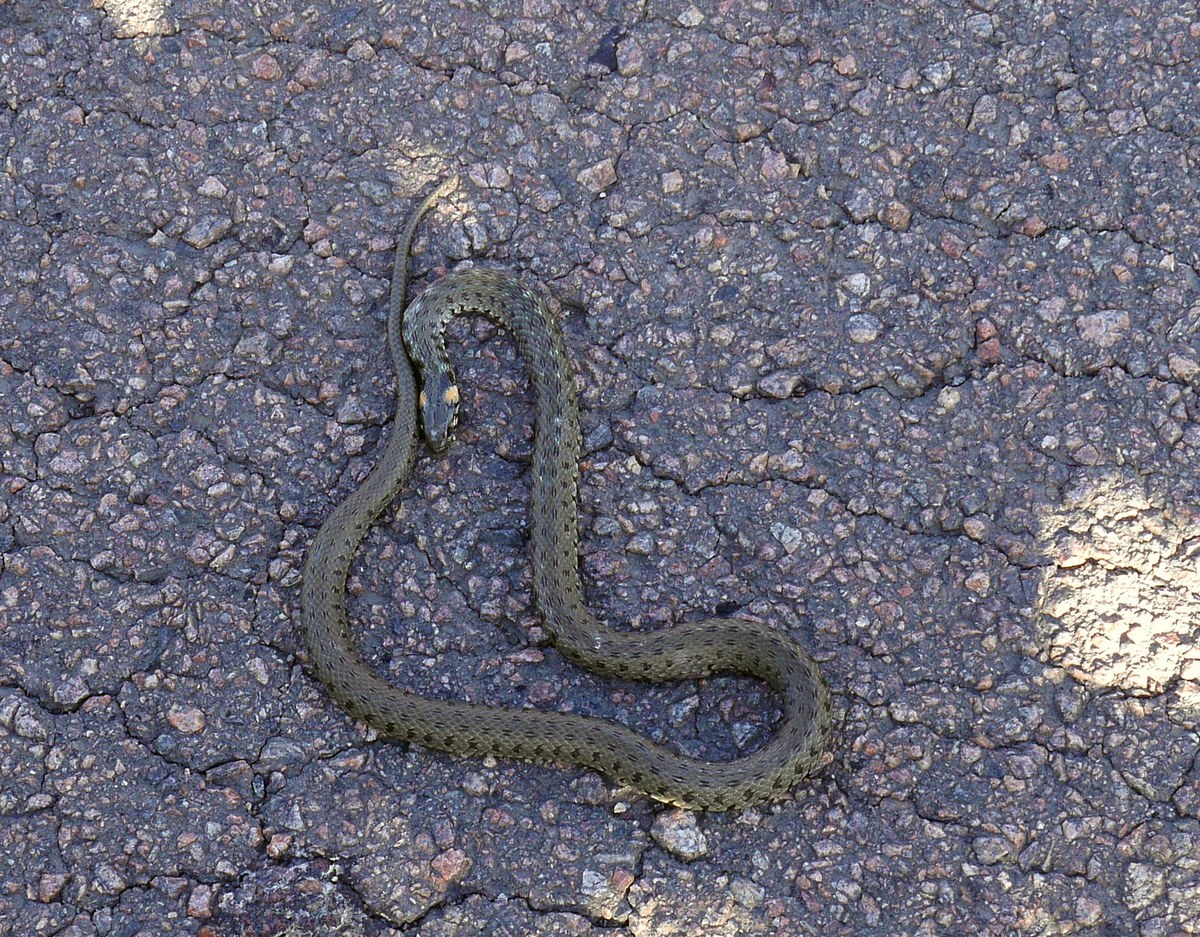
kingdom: Animalia
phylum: Chordata
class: Squamata
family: Colubridae
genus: Natrix
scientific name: Natrix natrix
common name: Grass snake
